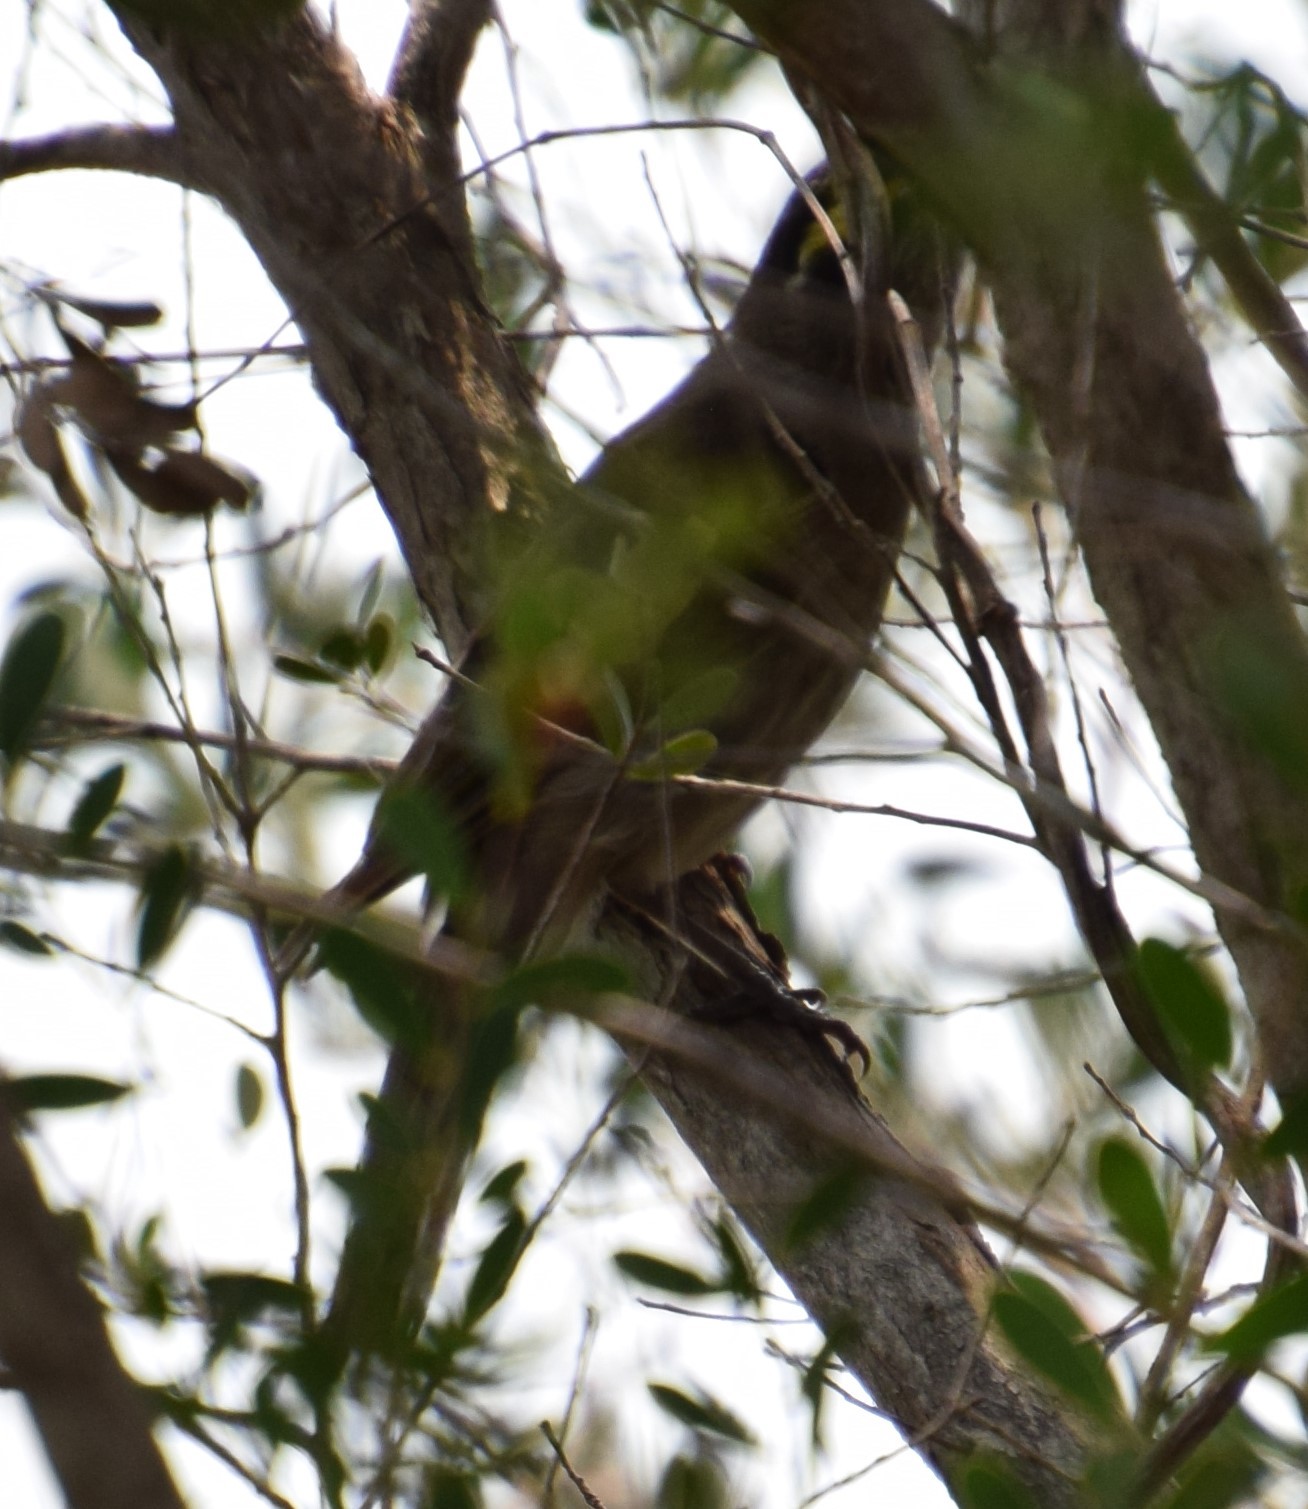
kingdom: Animalia
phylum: Chordata
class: Aves
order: Passeriformes
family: Meliphagidae
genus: Caligavis
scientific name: Caligavis chrysops
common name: Yellow-faced honeyeater
